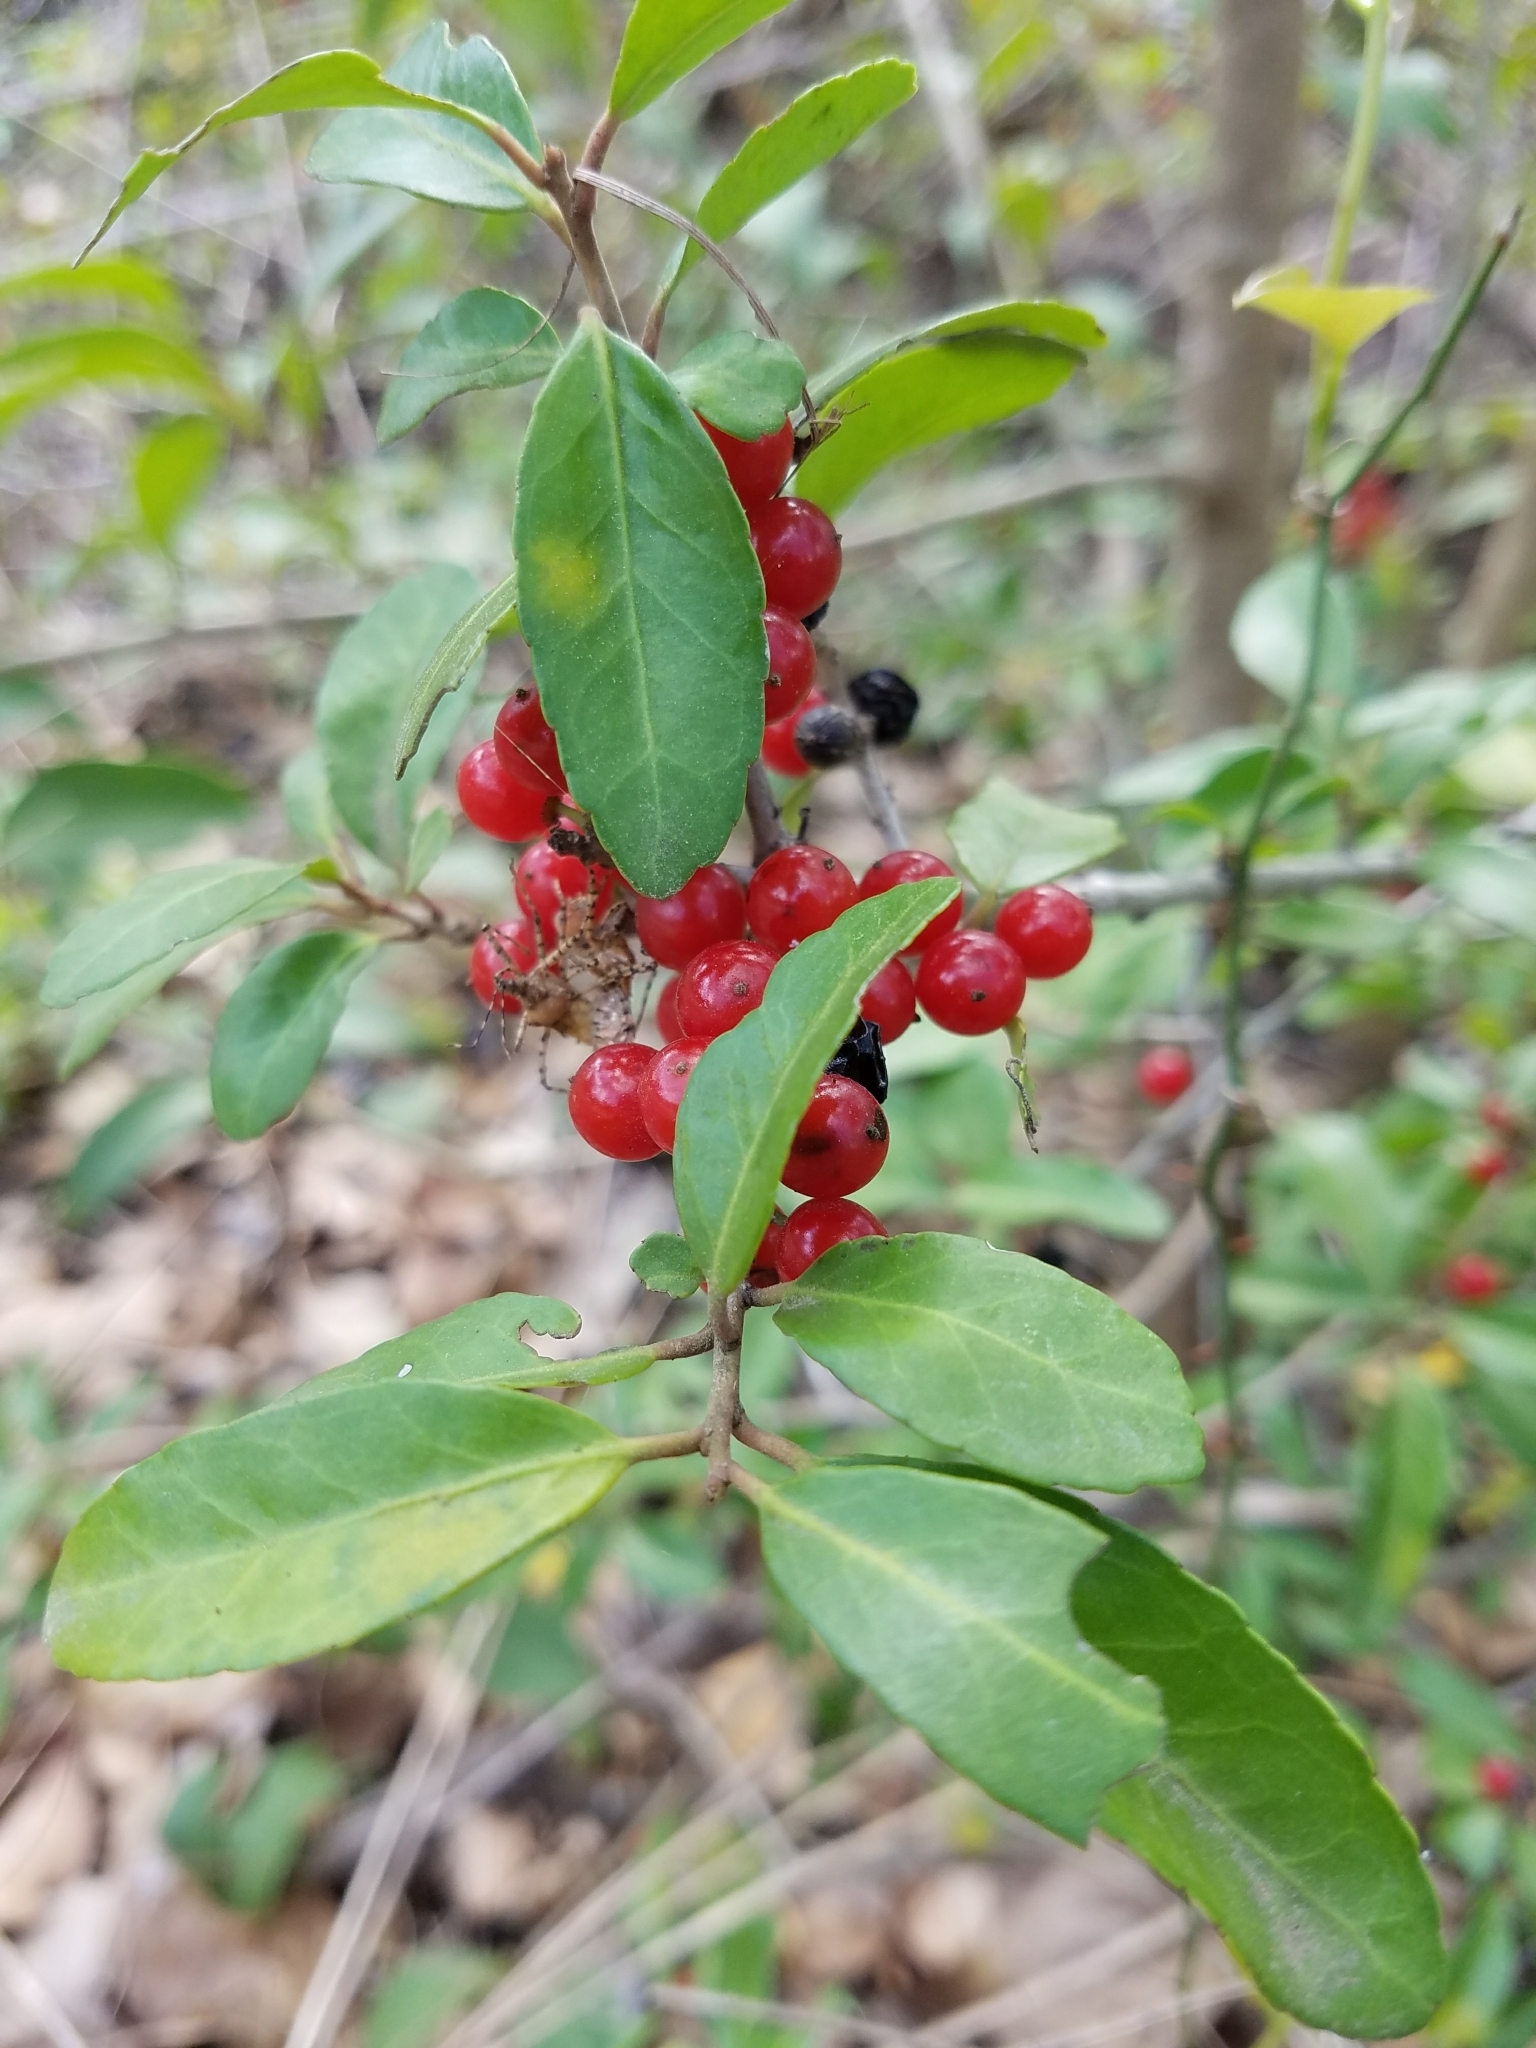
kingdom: Plantae
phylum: Tracheophyta
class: Magnoliopsida
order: Aquifoliales
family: Aquifoliaceae
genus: Ilex
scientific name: Ilex vomitoria
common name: Yaupon holly
